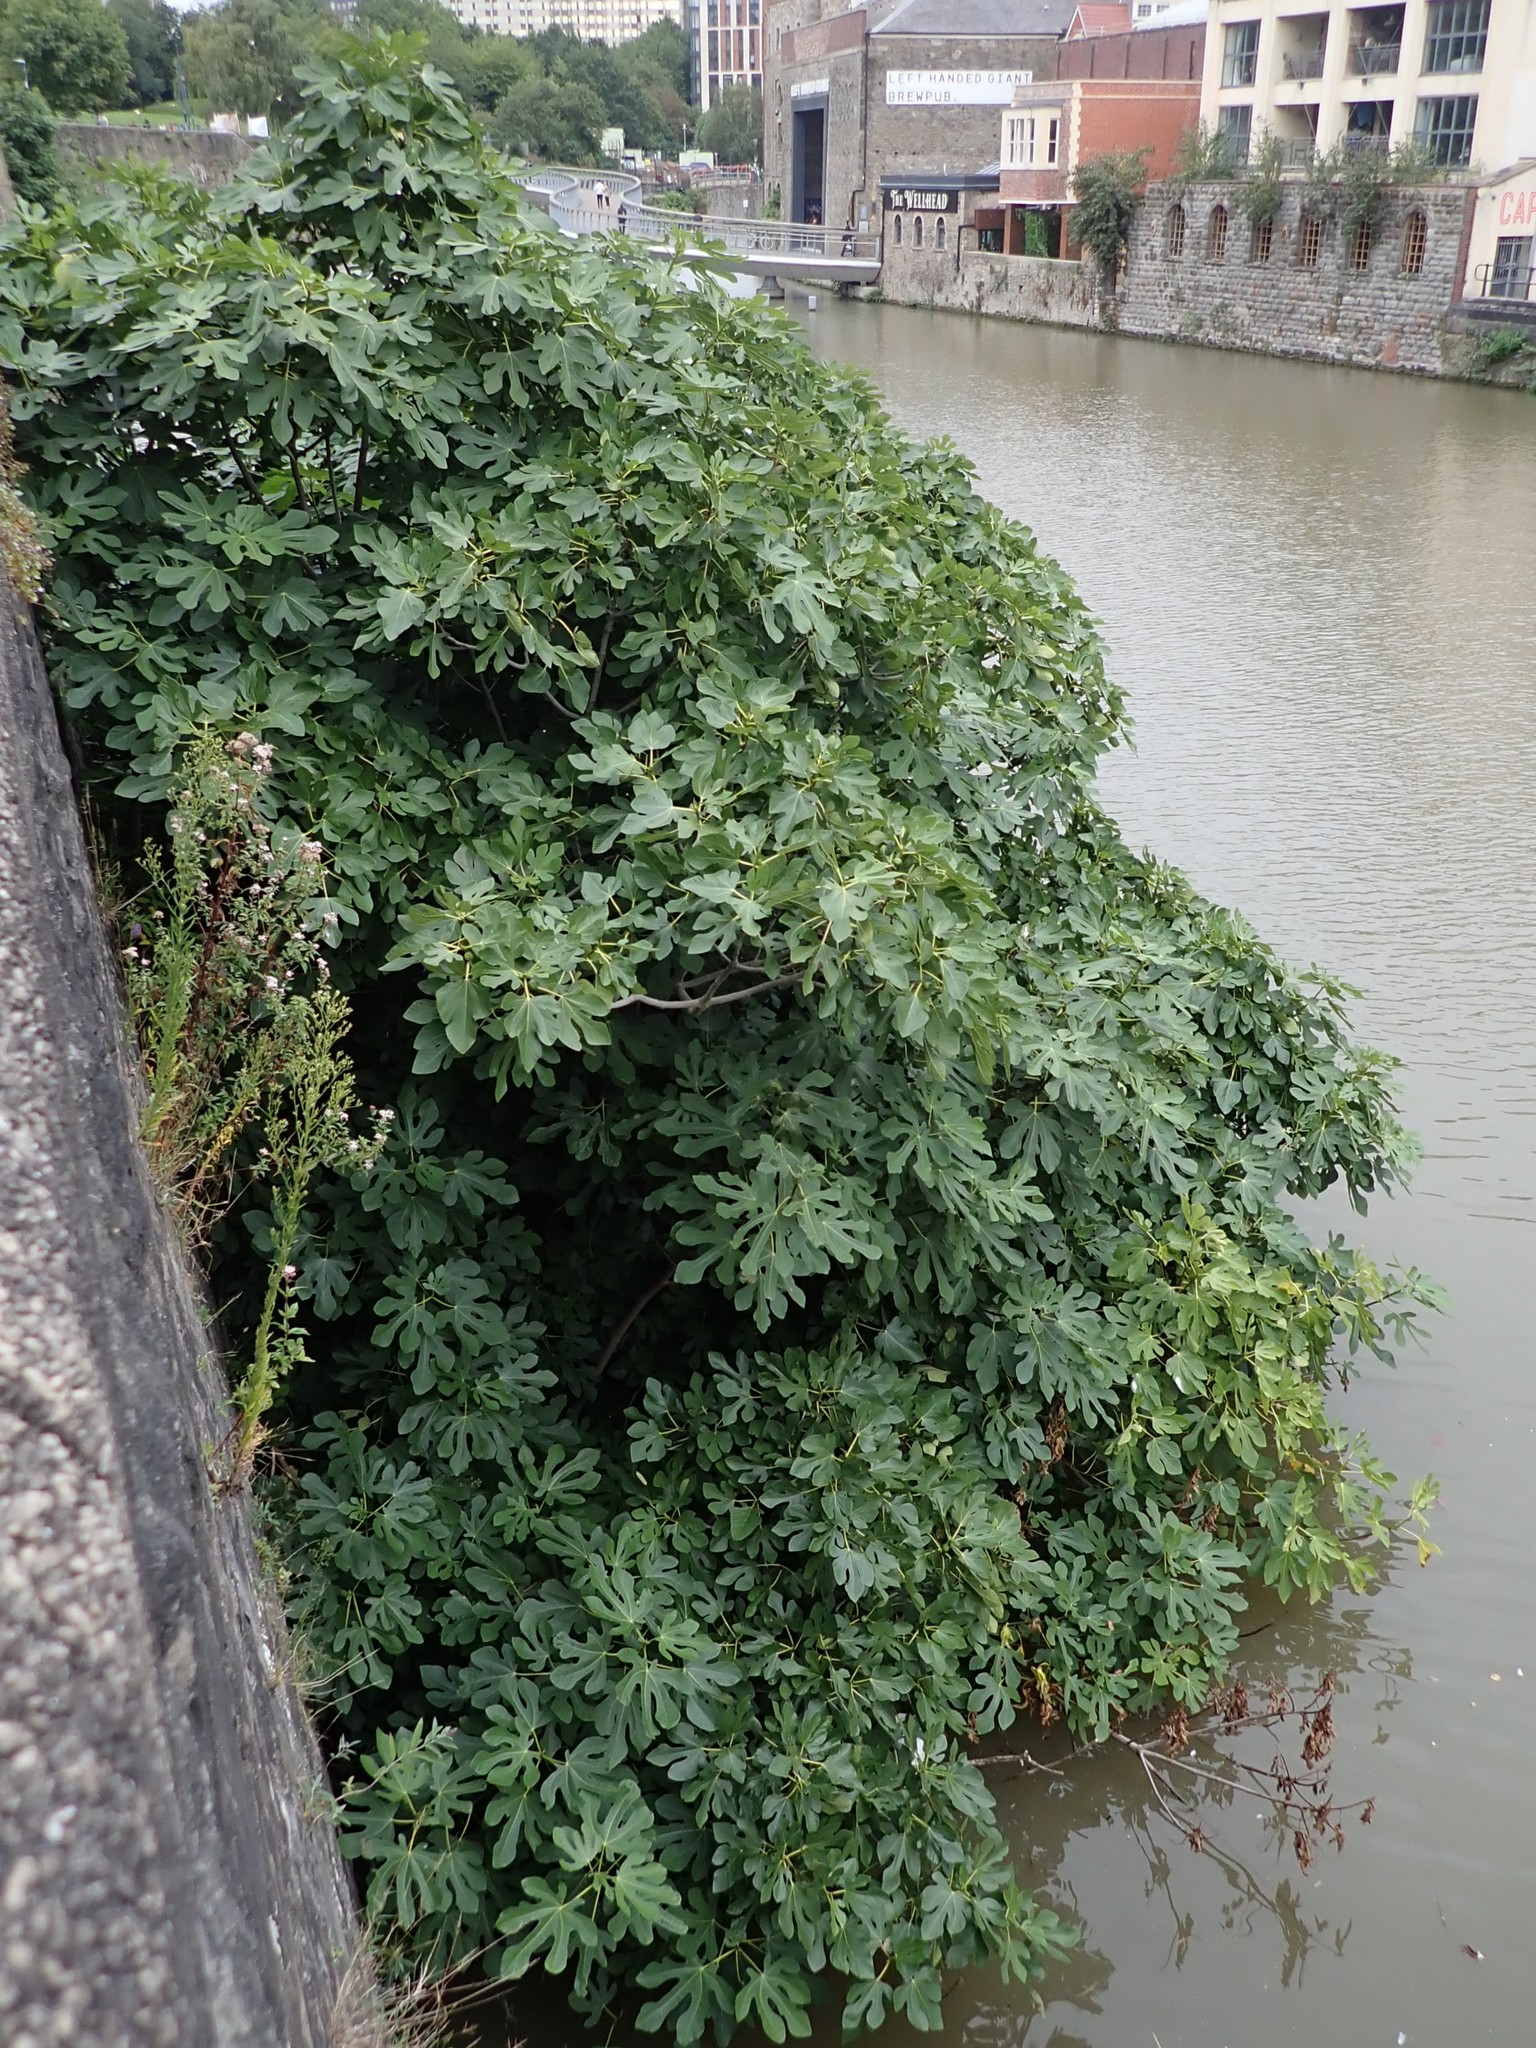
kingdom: Plantae
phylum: Tracheophyta
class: Magnoliopsida
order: Rosales
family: Moraceae
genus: Ficus
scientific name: Ficus carica
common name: Fig
